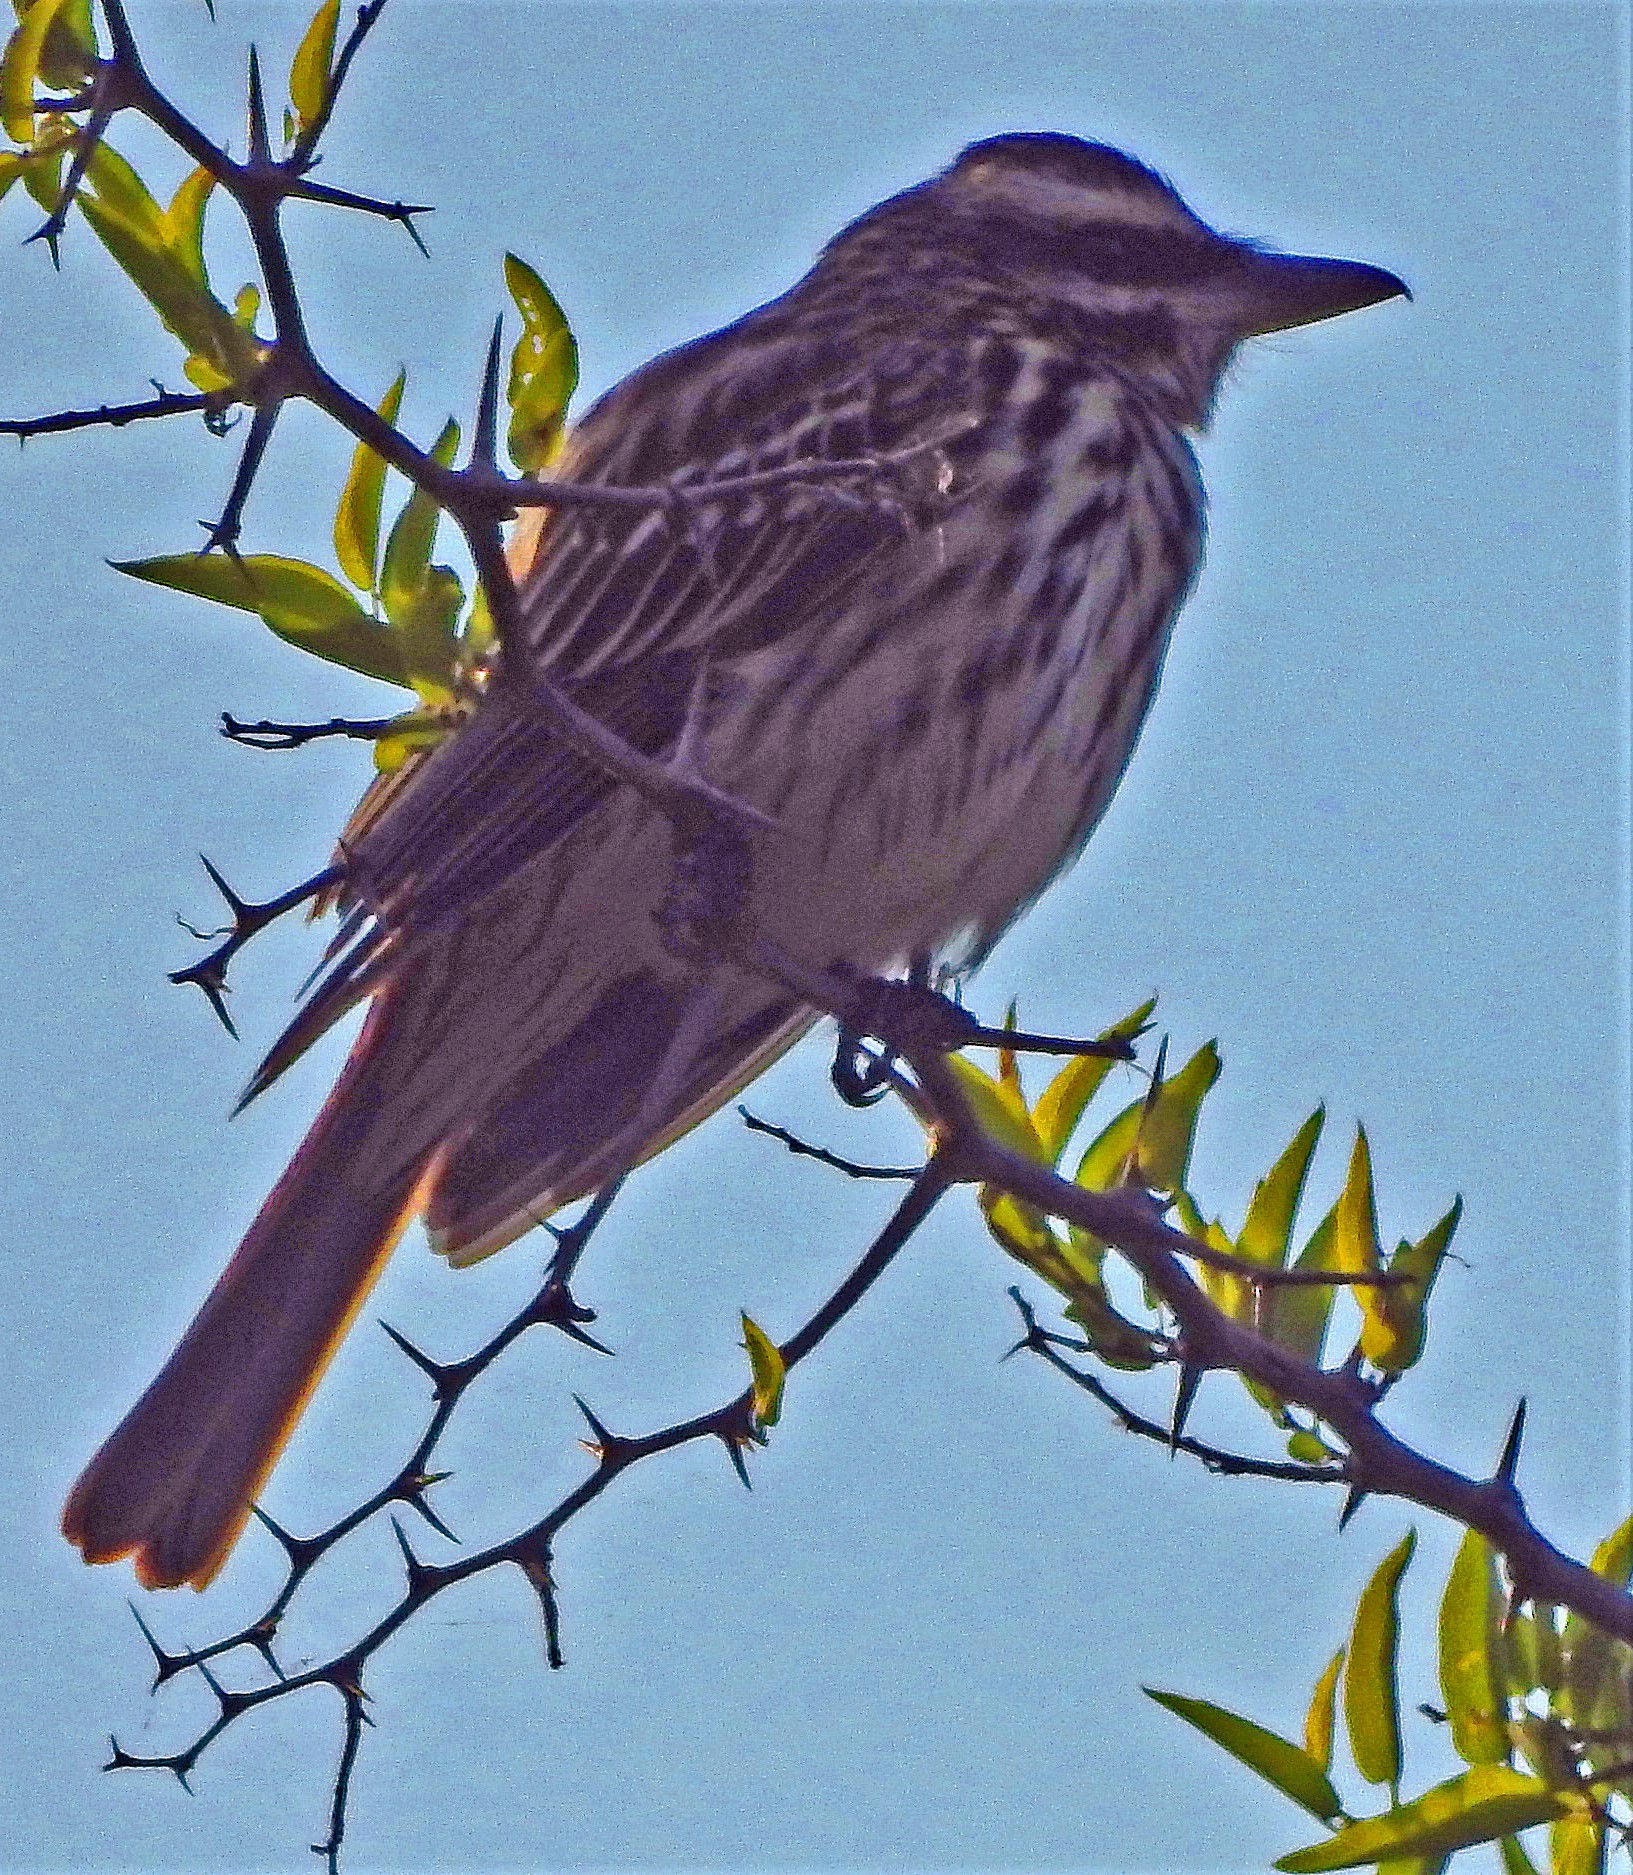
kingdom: Animalia
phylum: Chordata
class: Aves
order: Passeriformes
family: Tyrannidae
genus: Myiodynastes
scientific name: Myiodynastes maculatus
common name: Streaked flycatcher
